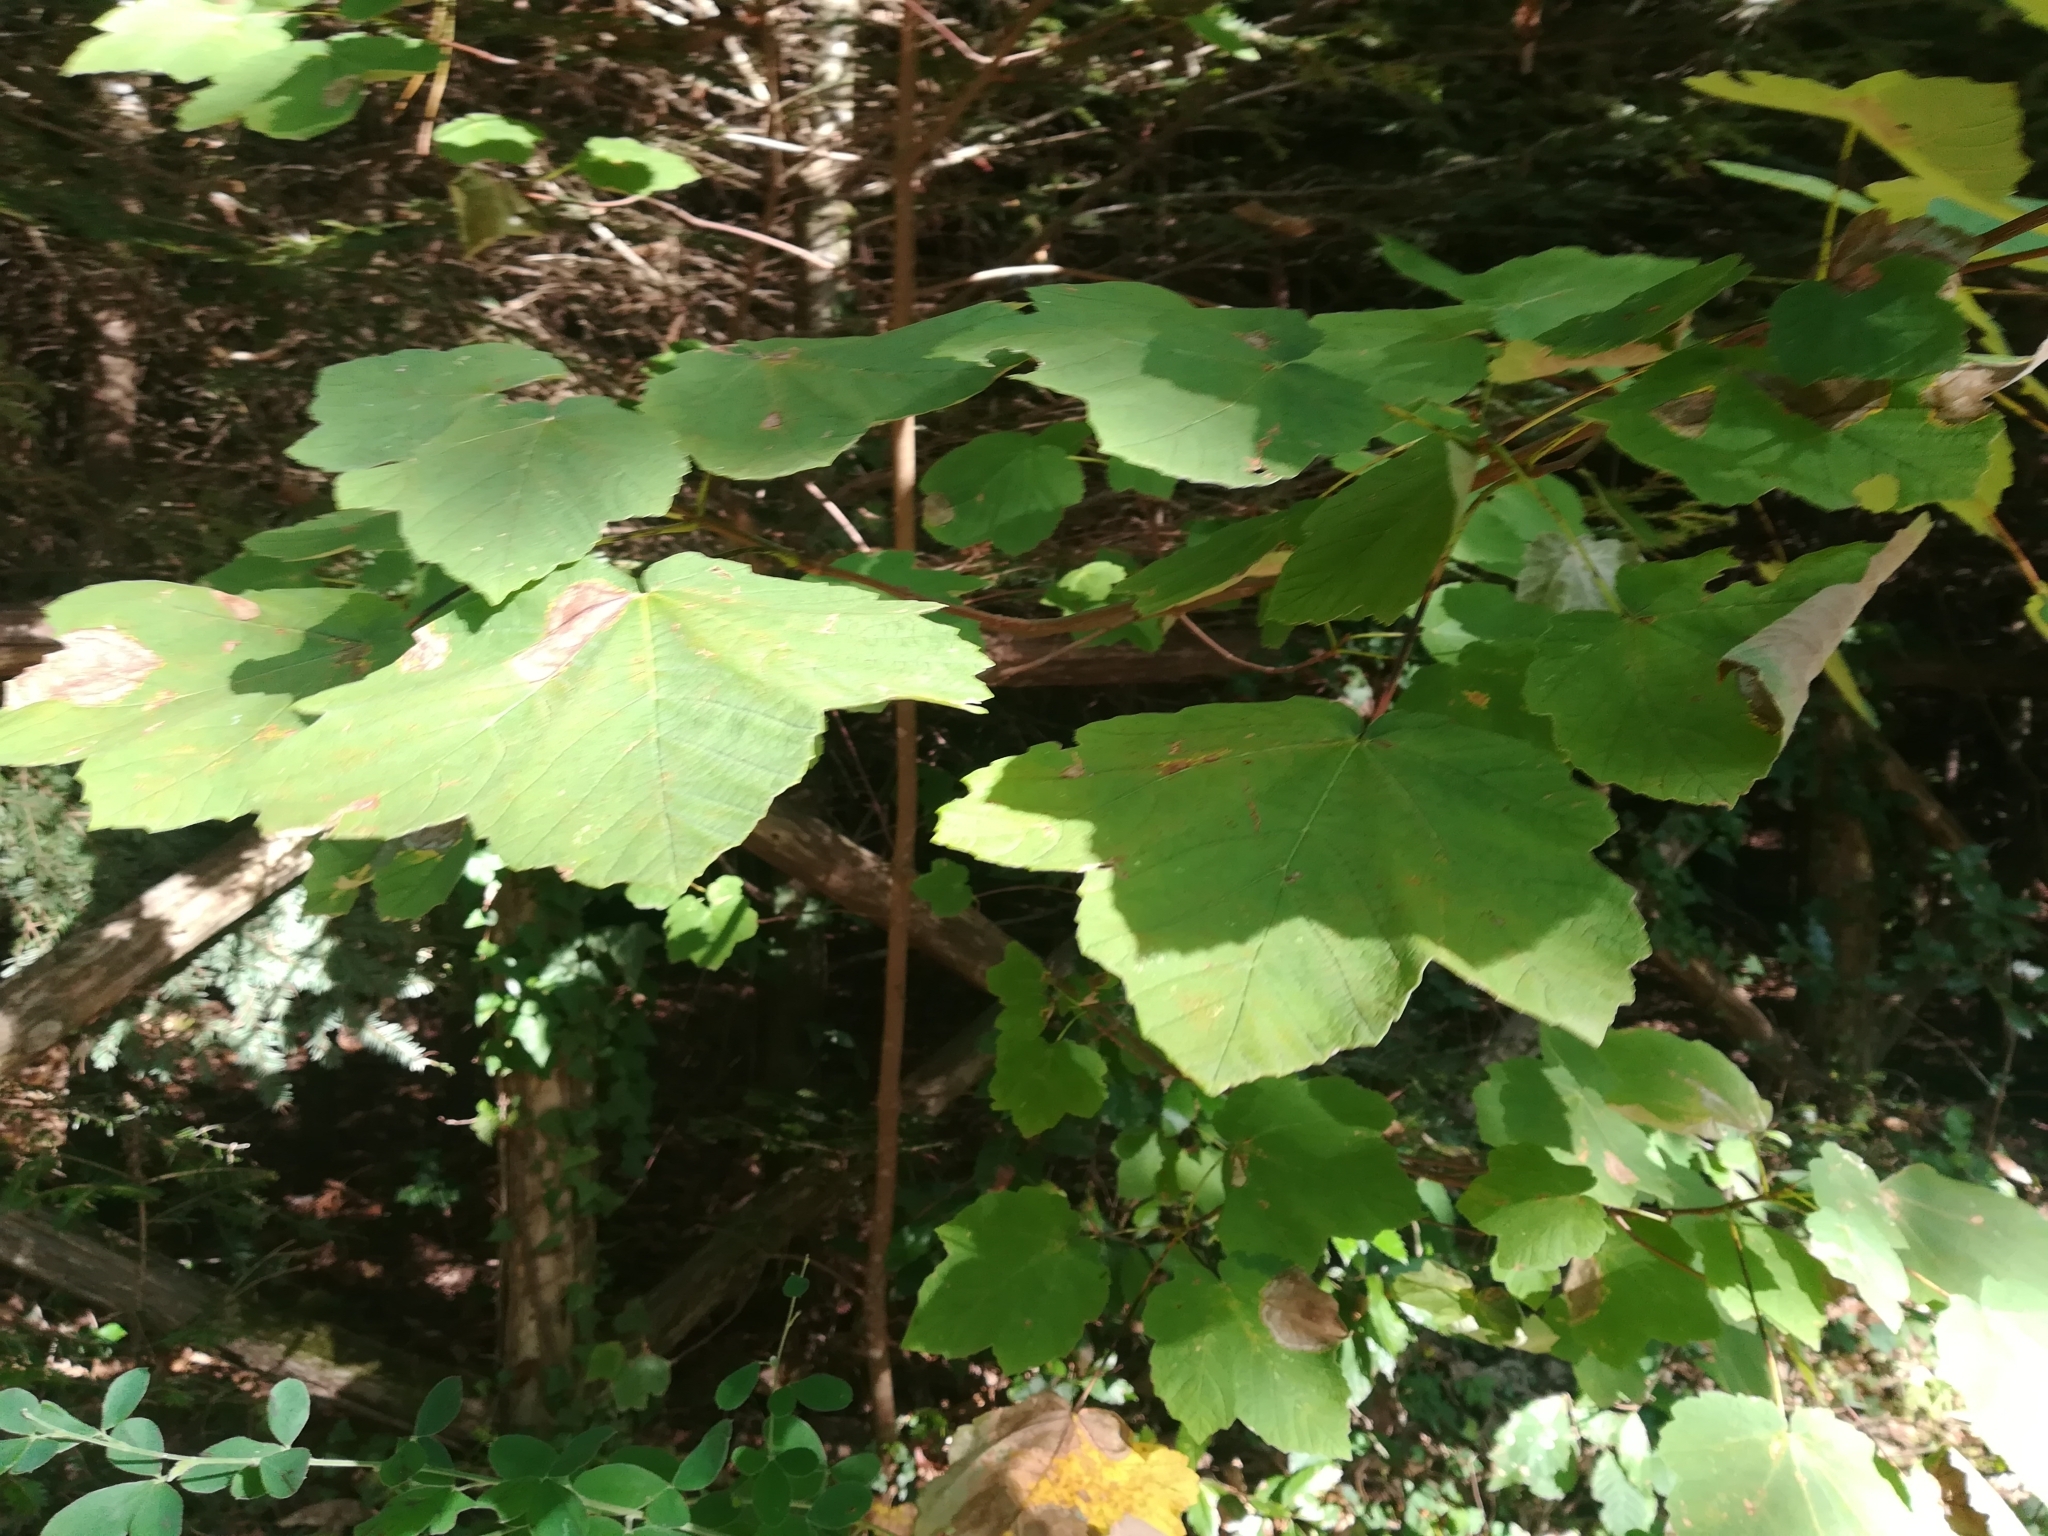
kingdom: Plantae
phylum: Tracheophyta
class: Magnoliopsida
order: Sapindales
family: Sapindaceae
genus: Acer
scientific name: Acer opalus
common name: Italian maple
